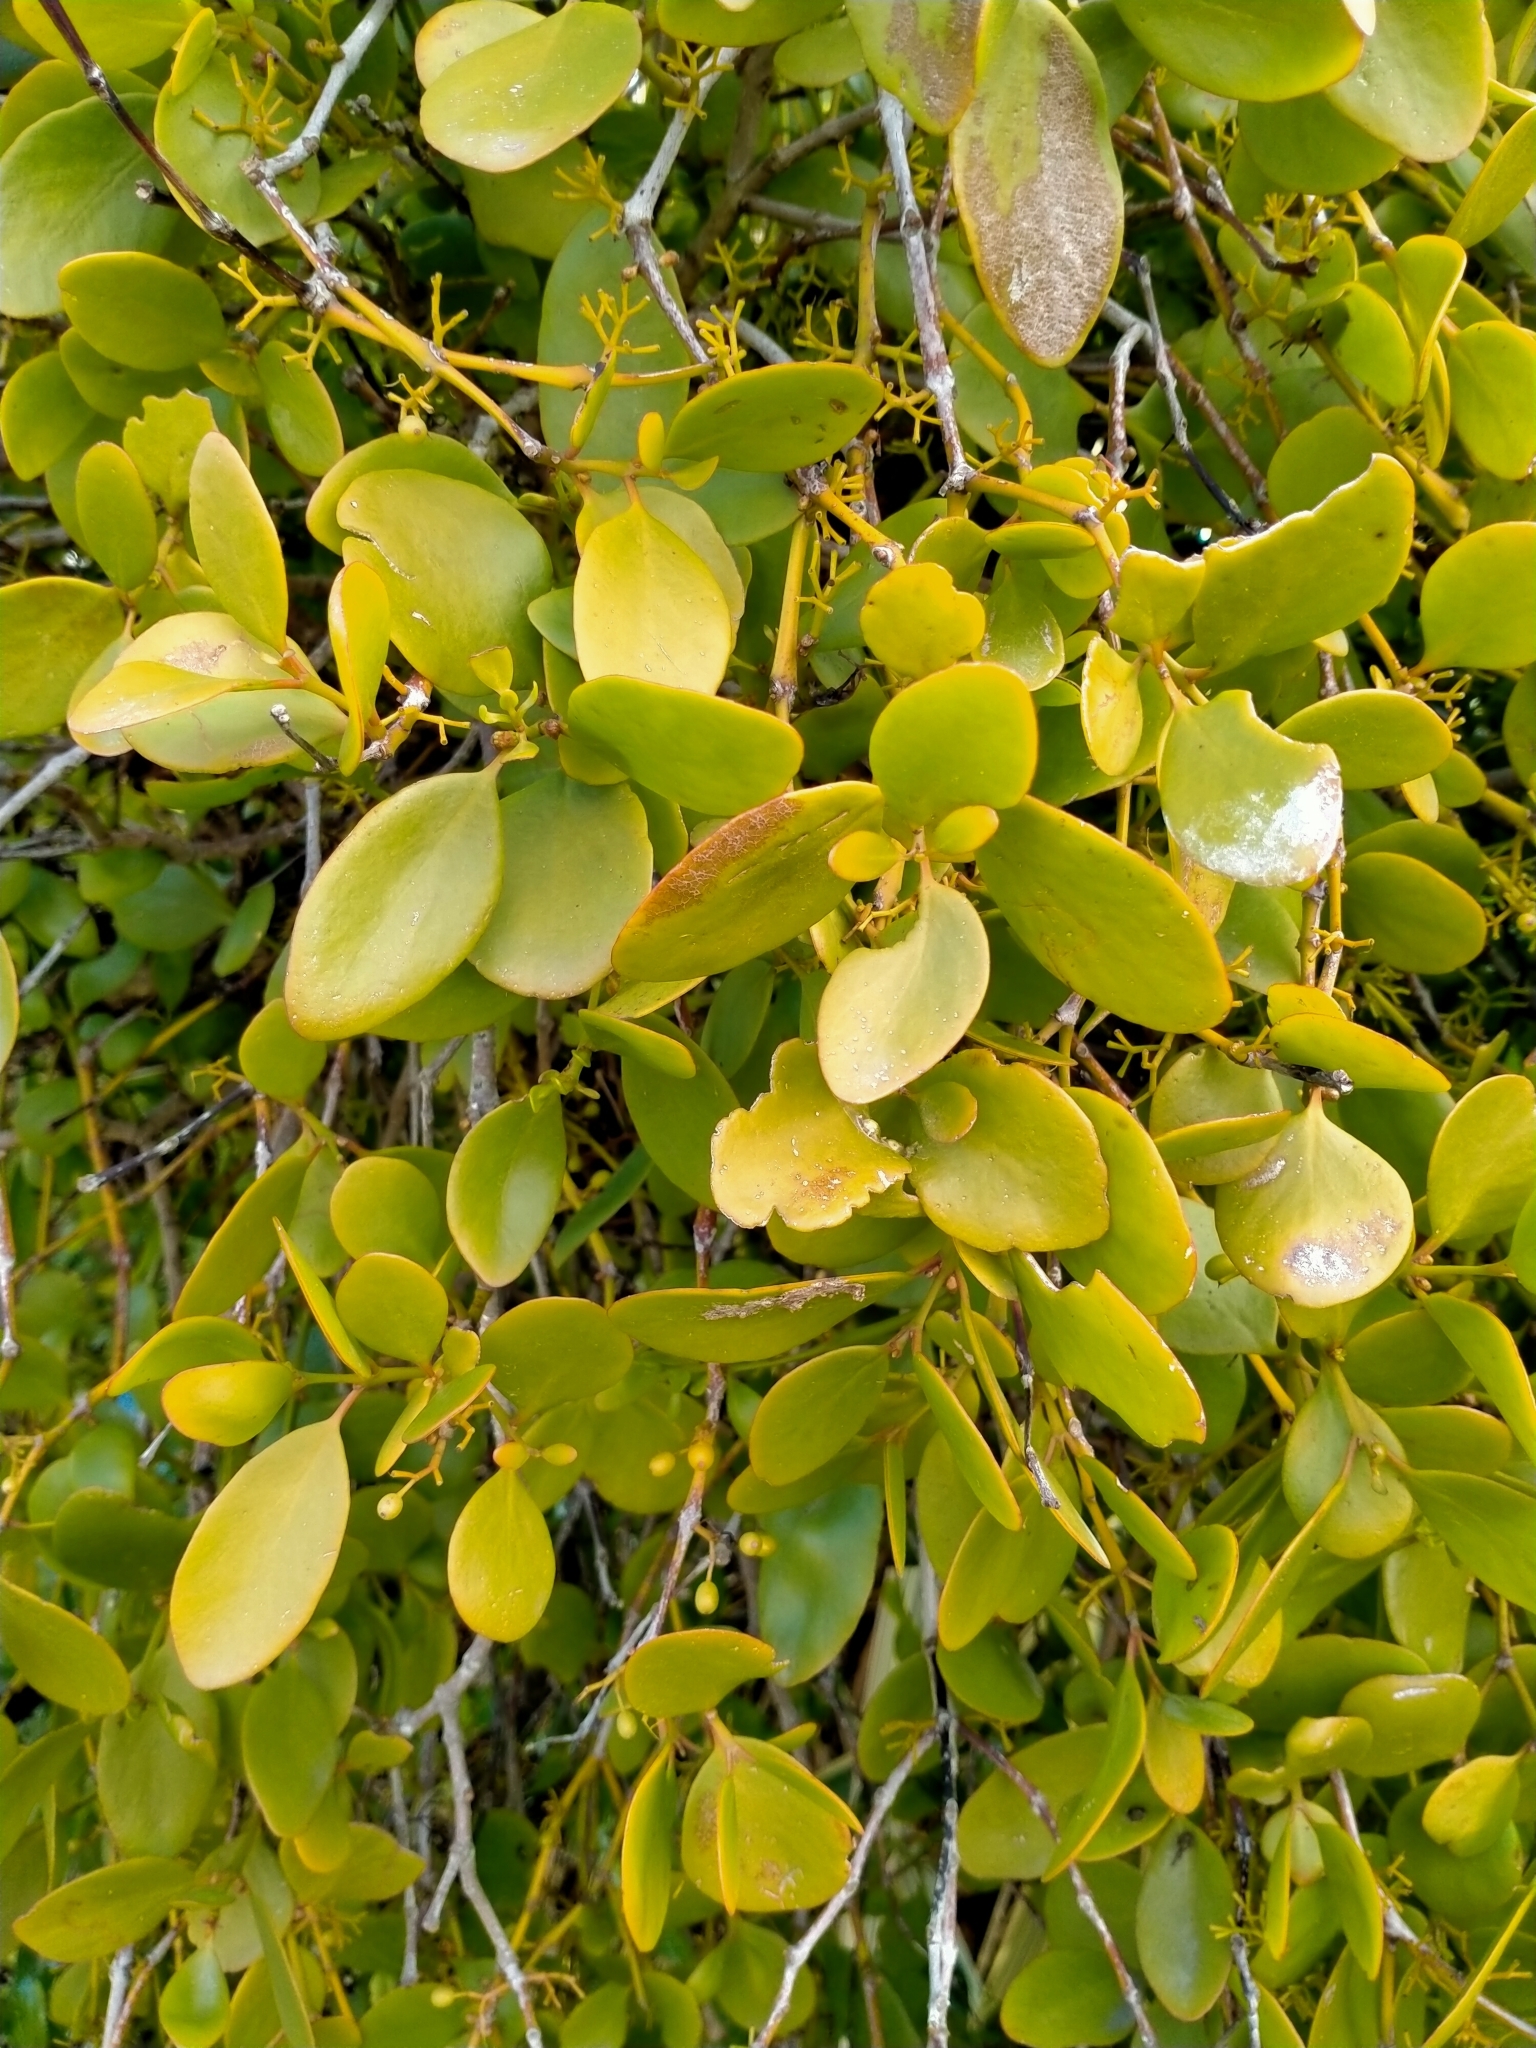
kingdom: Plantae
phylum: Tracheophyta
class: Magnoliopsida
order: Santalales
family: Loranthaceae
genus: Ileostylus
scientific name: Ileostylus micranthus
